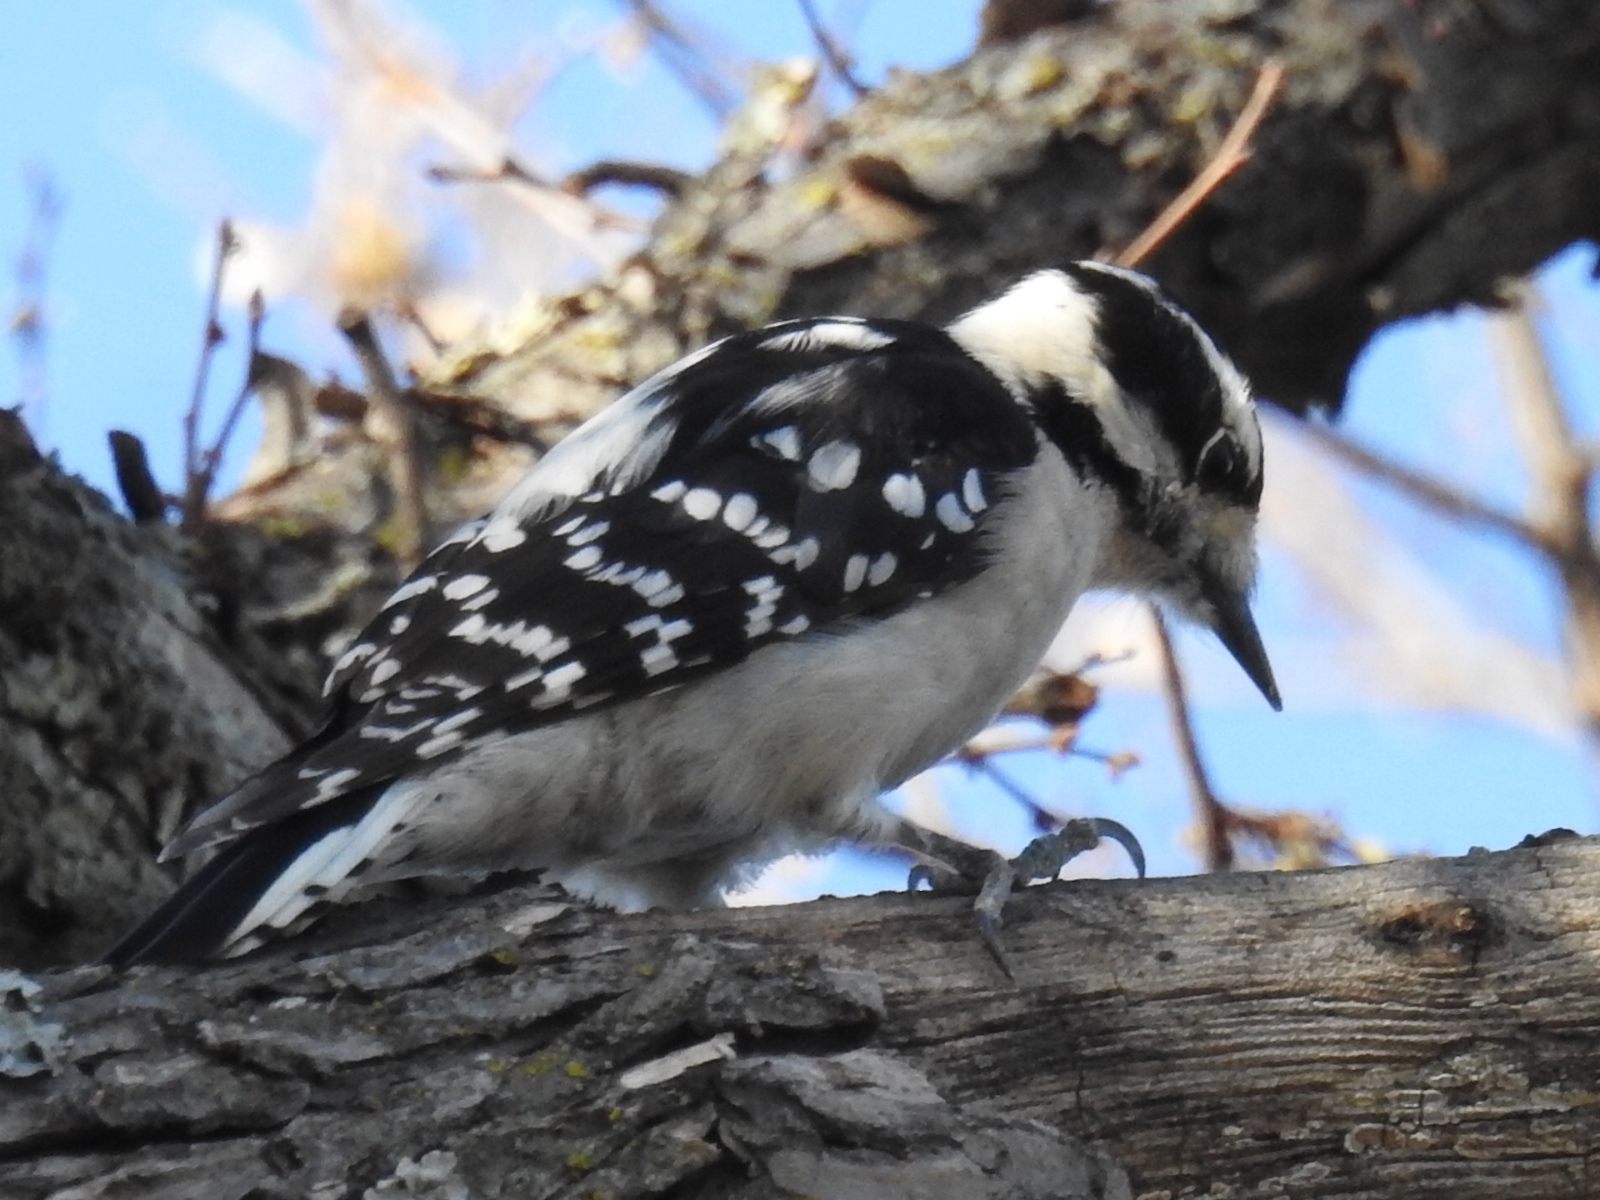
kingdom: Animalia
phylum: Chordata
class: Aves
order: Piciformes
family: Picidae
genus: Dryobates
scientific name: Dryobates pubescens
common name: Downy woodpecker
